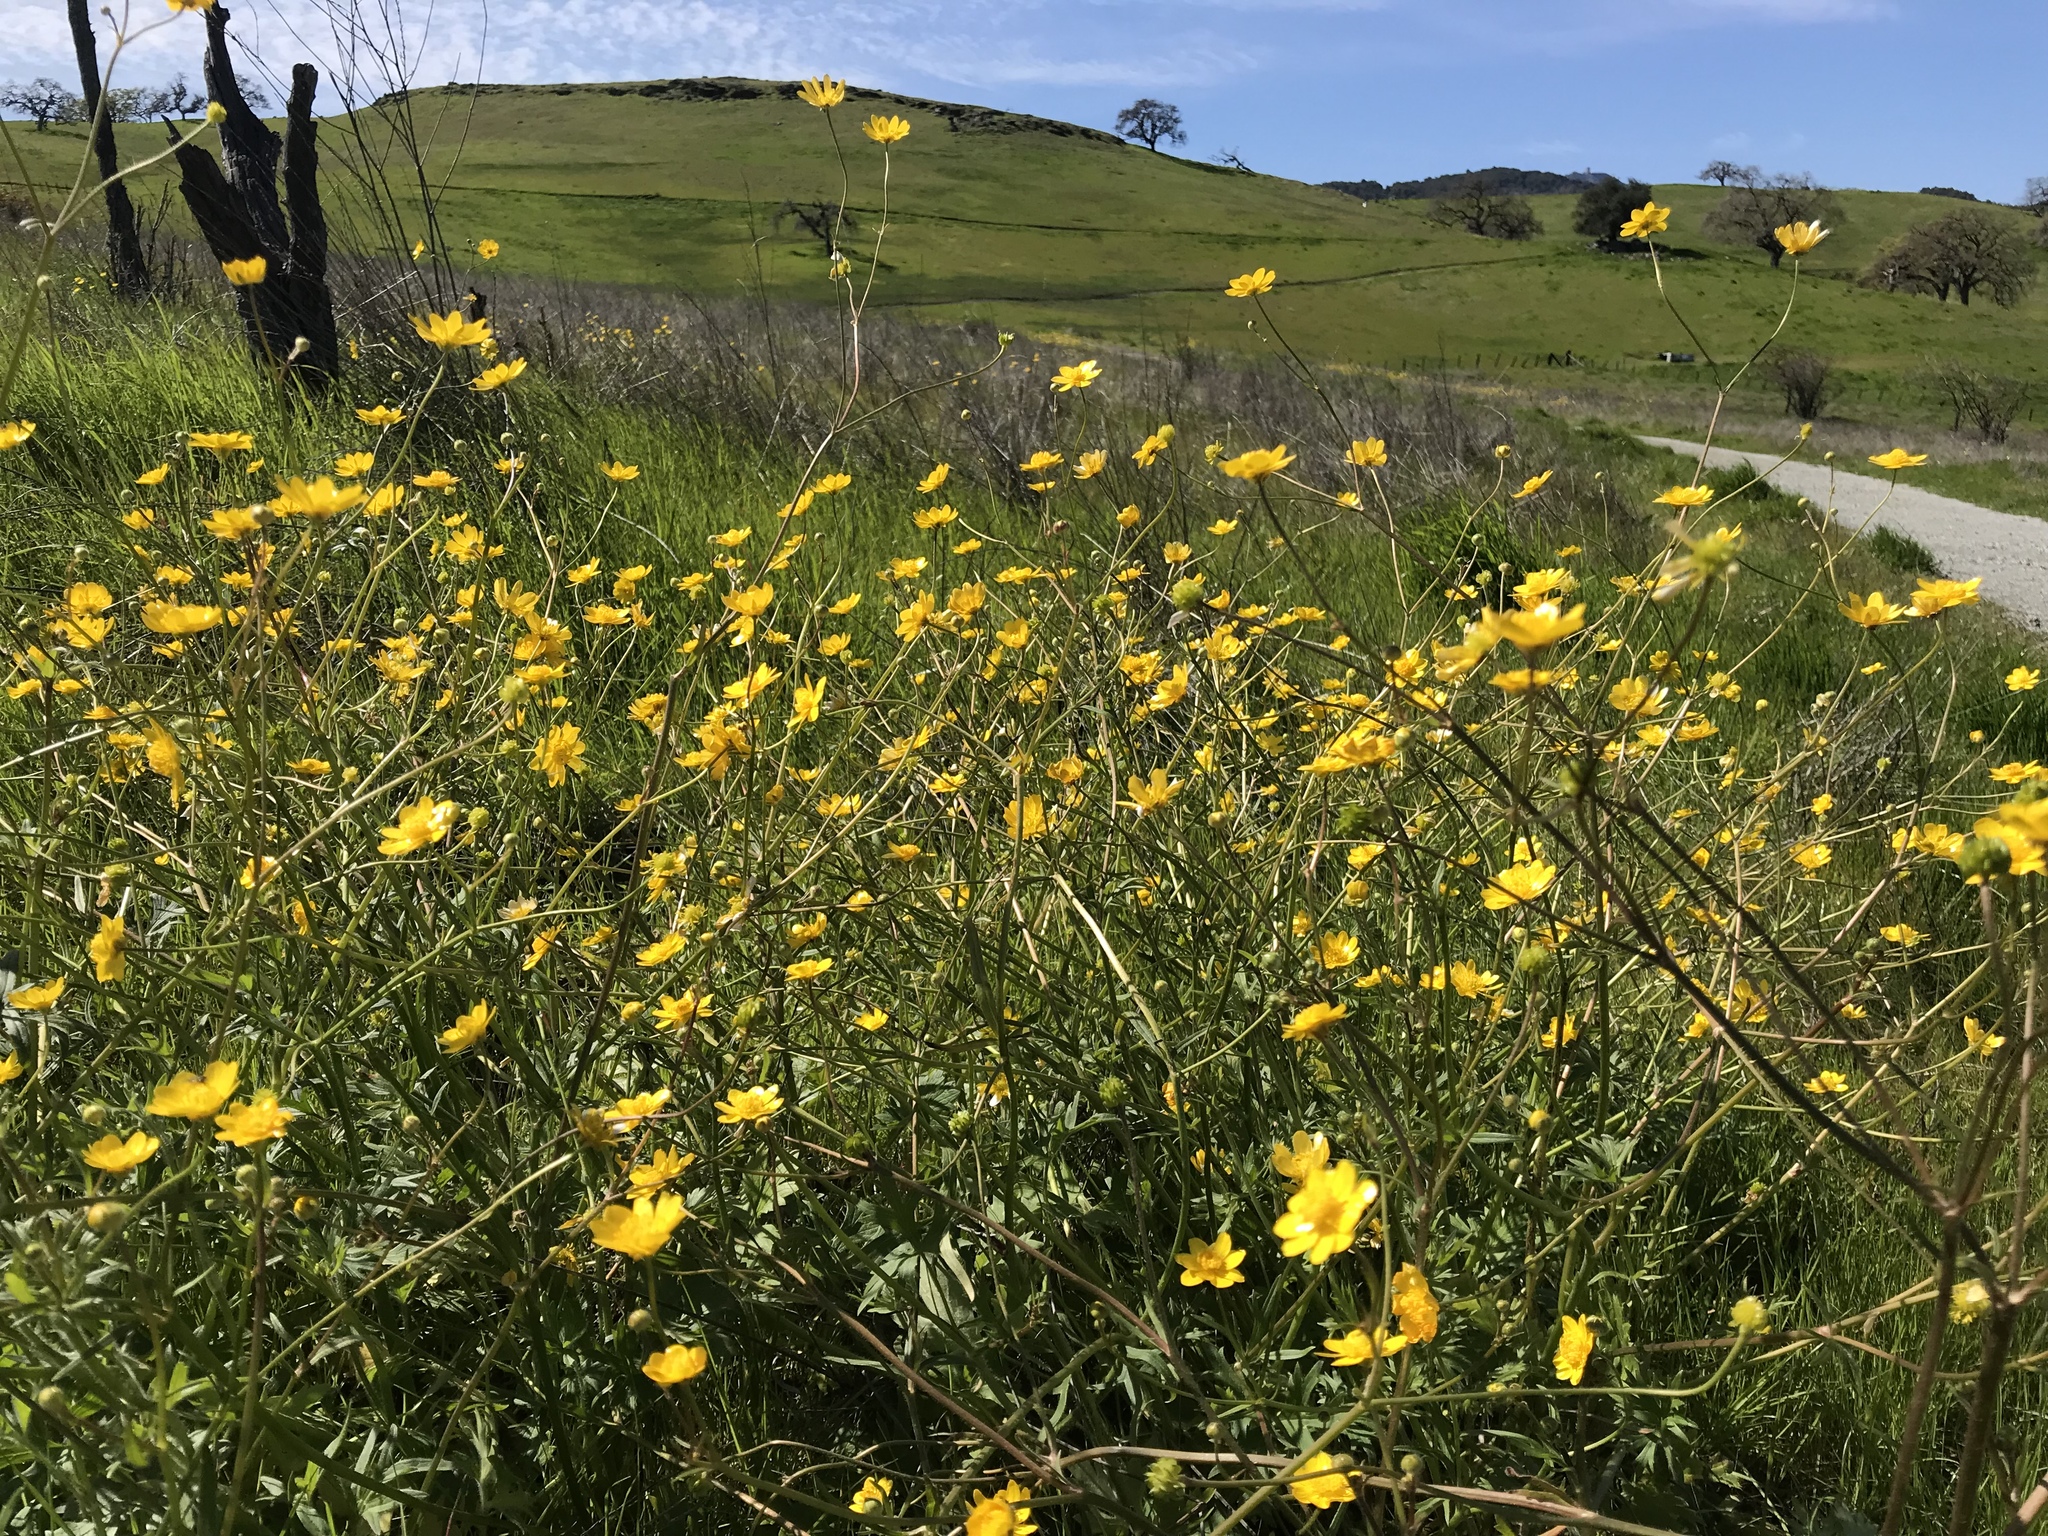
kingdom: Plantae
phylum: Tracheophyta
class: Magnoliopsida
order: Ranunculales
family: Ranunculaceae
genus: Ranunculus
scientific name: Ranunculus californicus
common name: California buttercup
